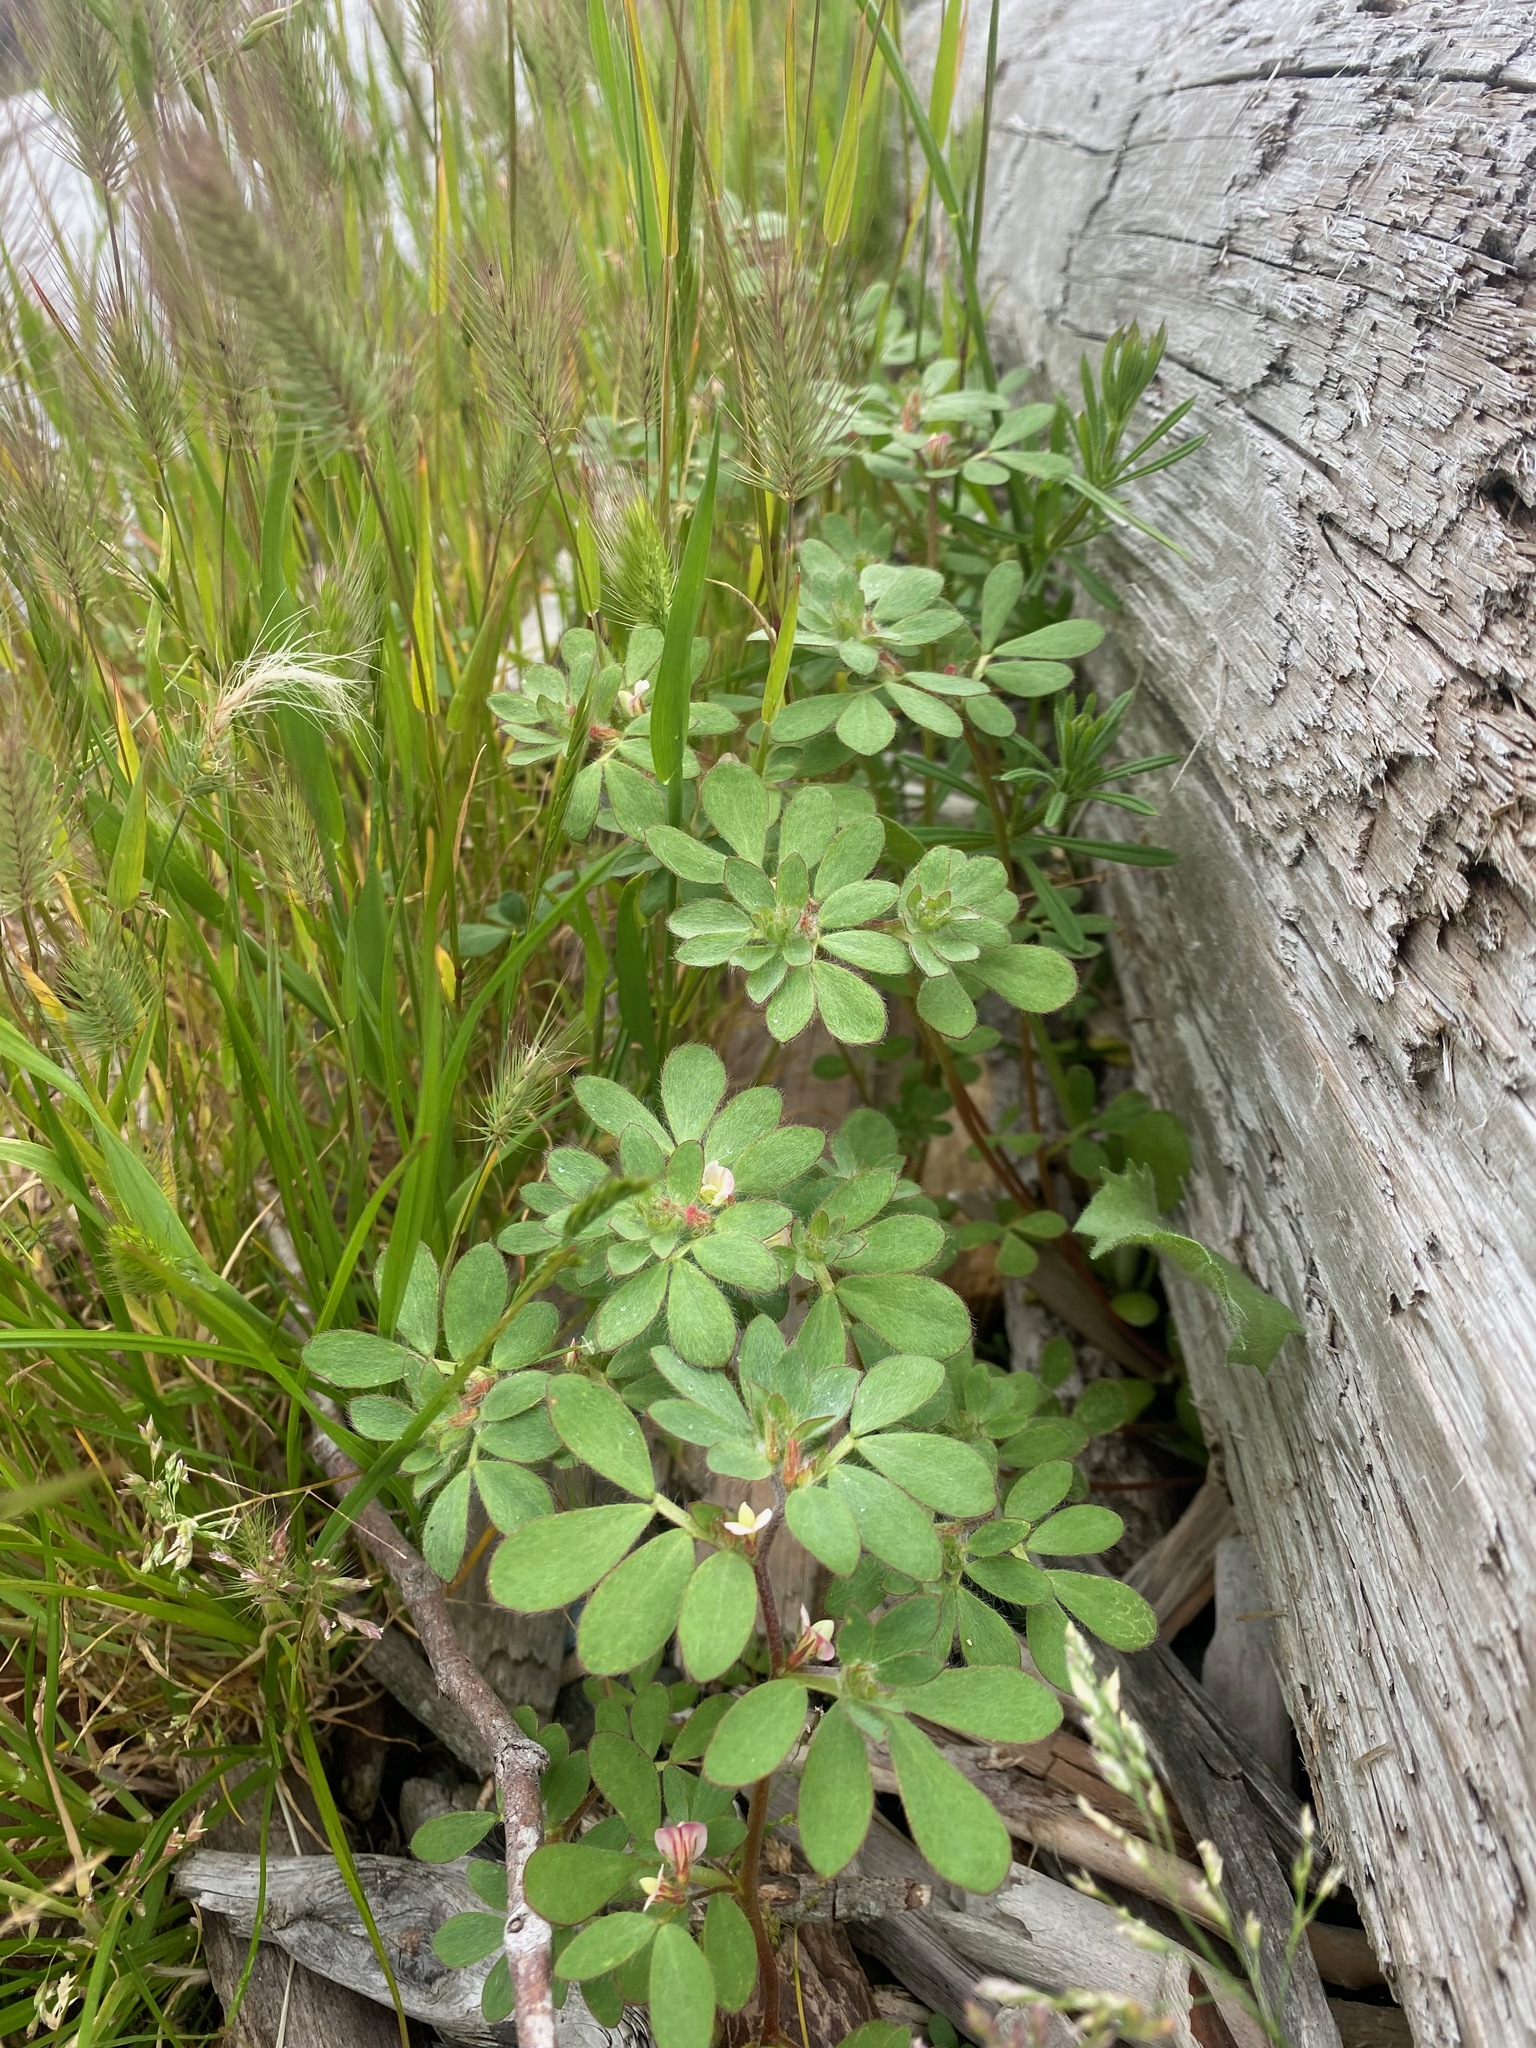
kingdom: Plantae
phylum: Tracheophyta
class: Magnoliopsida
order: Fabales
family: Fabaceae
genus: Acmispon
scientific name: Acmispon parviflorus
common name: Desert deer-vetch
